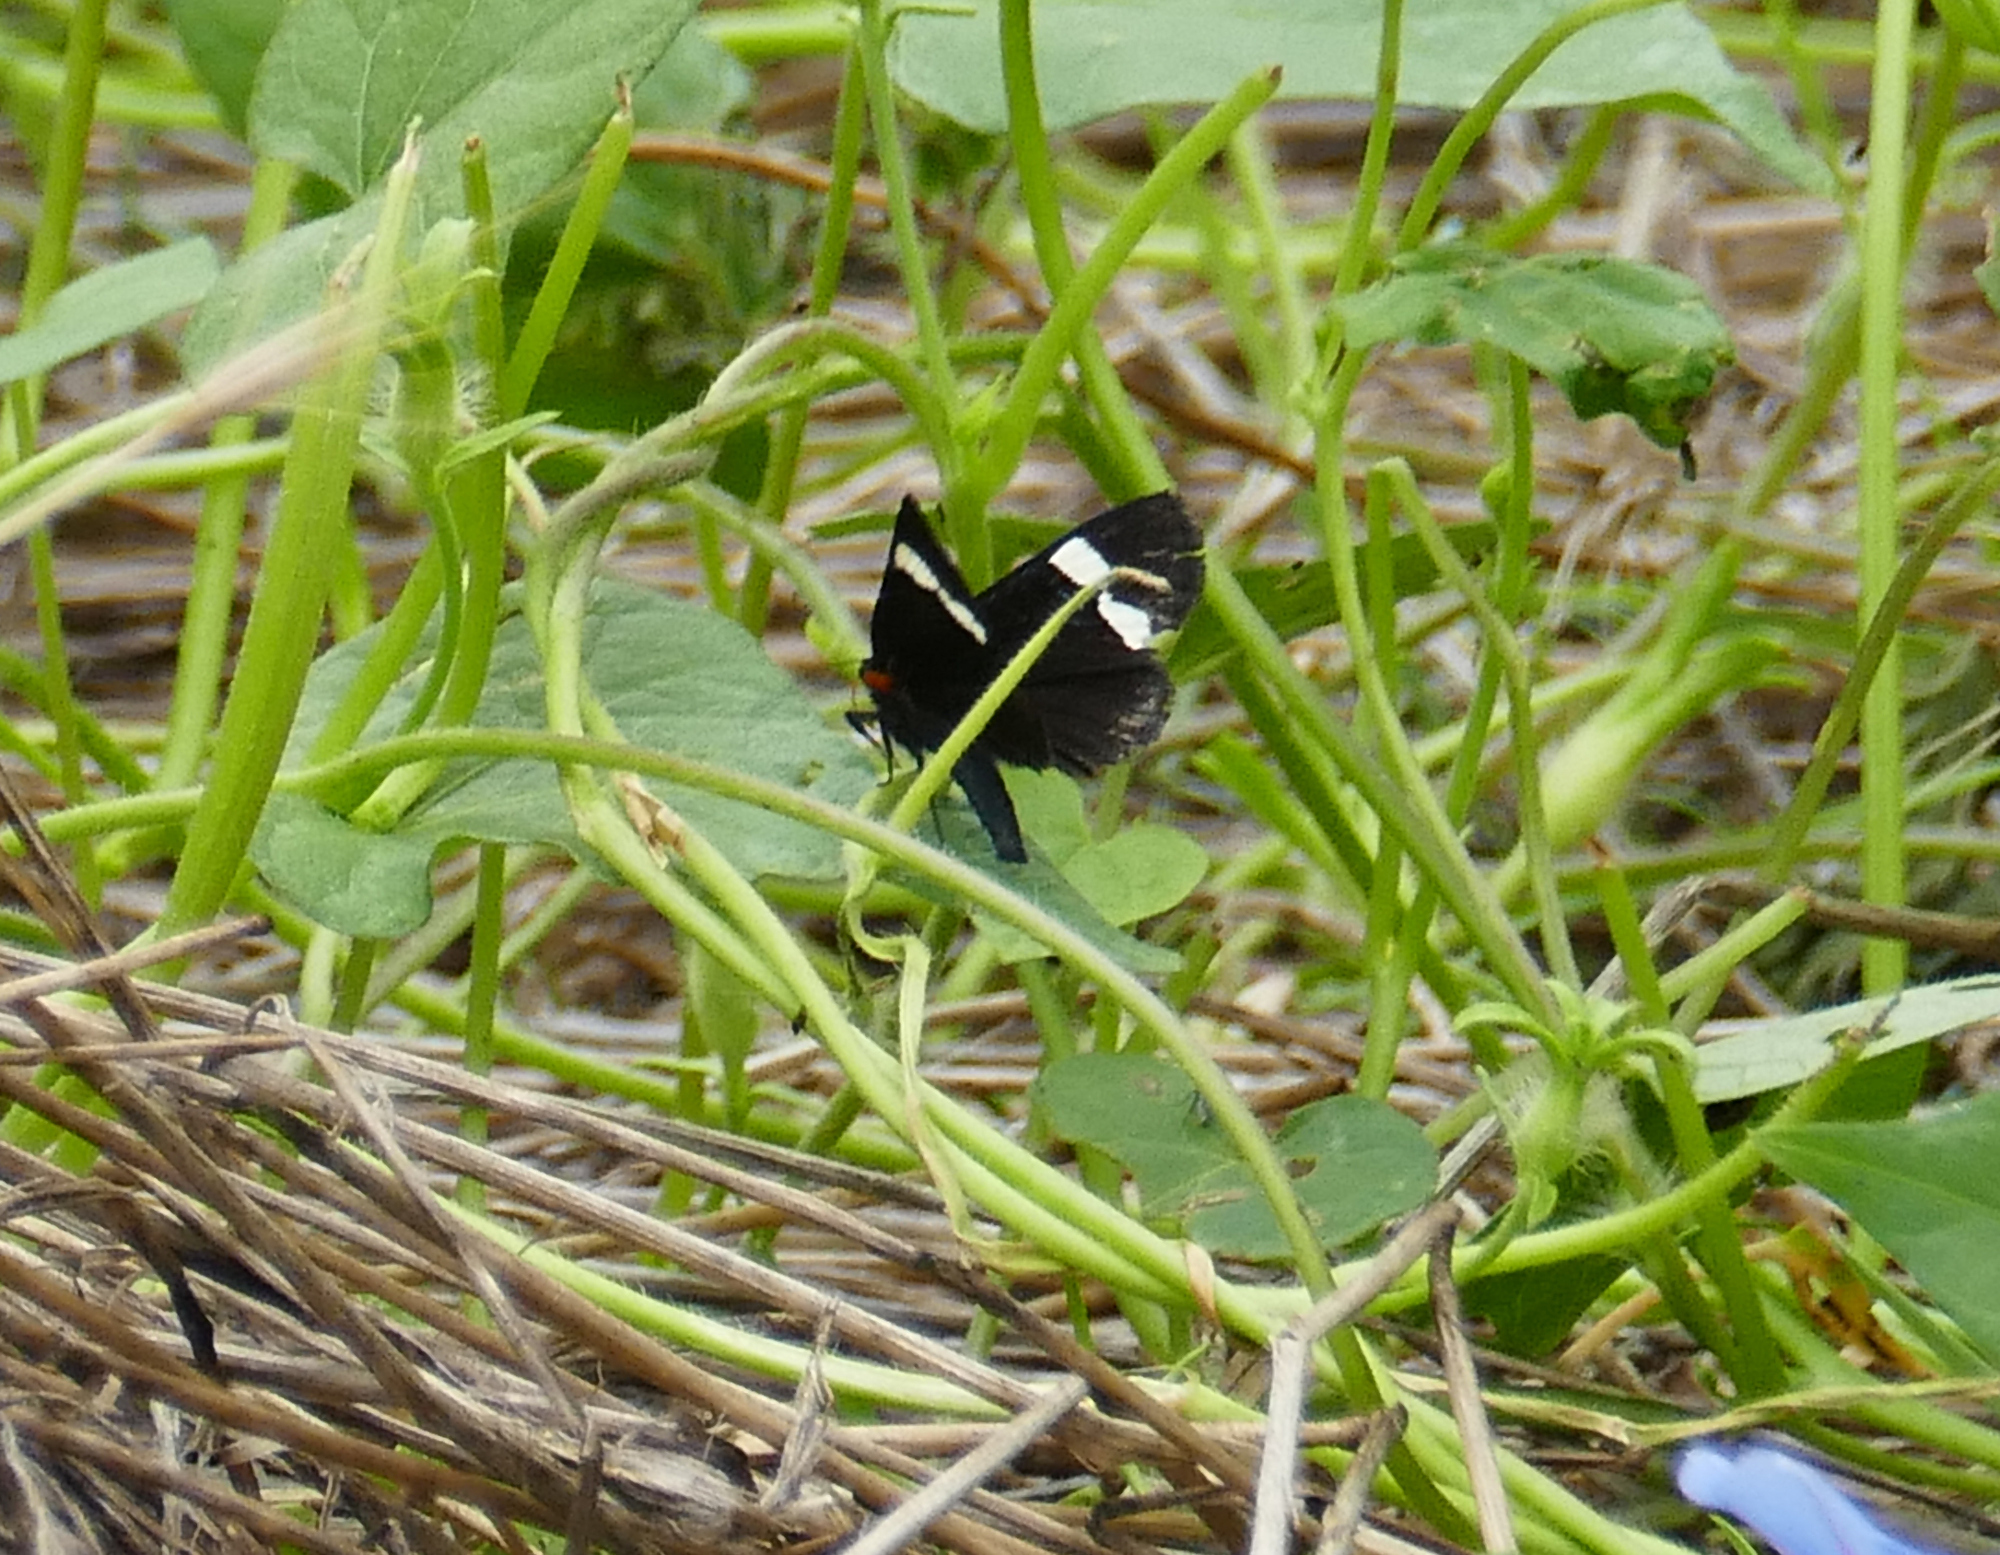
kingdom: Animalia
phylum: Arthropoda
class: Insecta
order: Lepidoptera
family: Noctuidae
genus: Alypiodes
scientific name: Alypiodes geronimo
